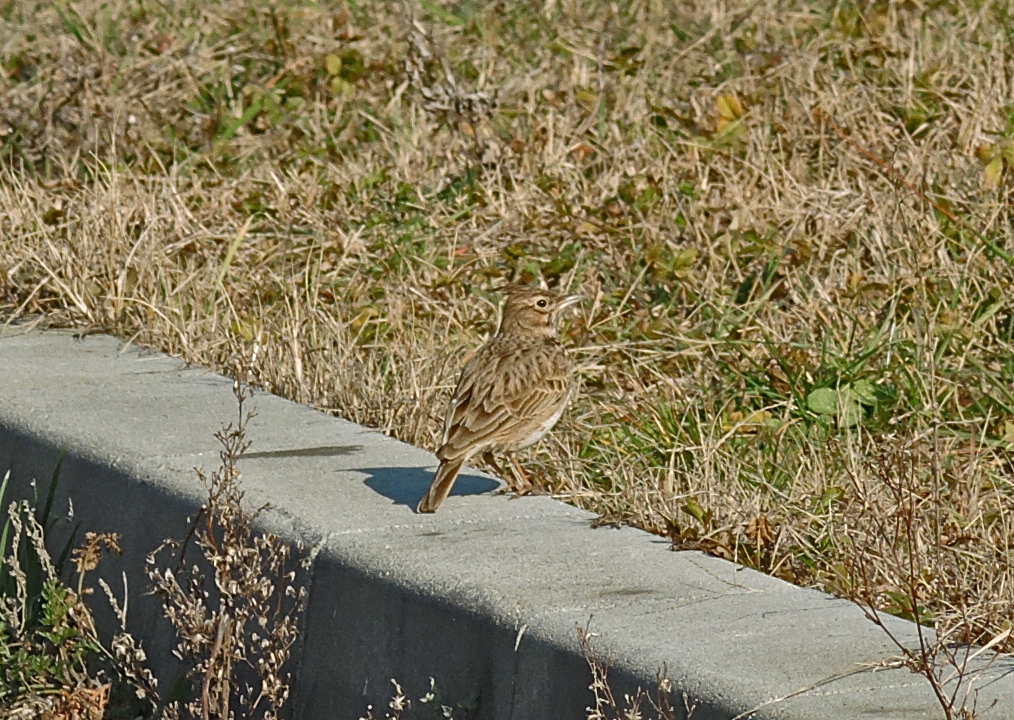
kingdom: Animalia
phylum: Chordata
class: Aves
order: Passeriformes
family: Alaudidae
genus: Galerida
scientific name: Galerida cristata
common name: Crested lark
